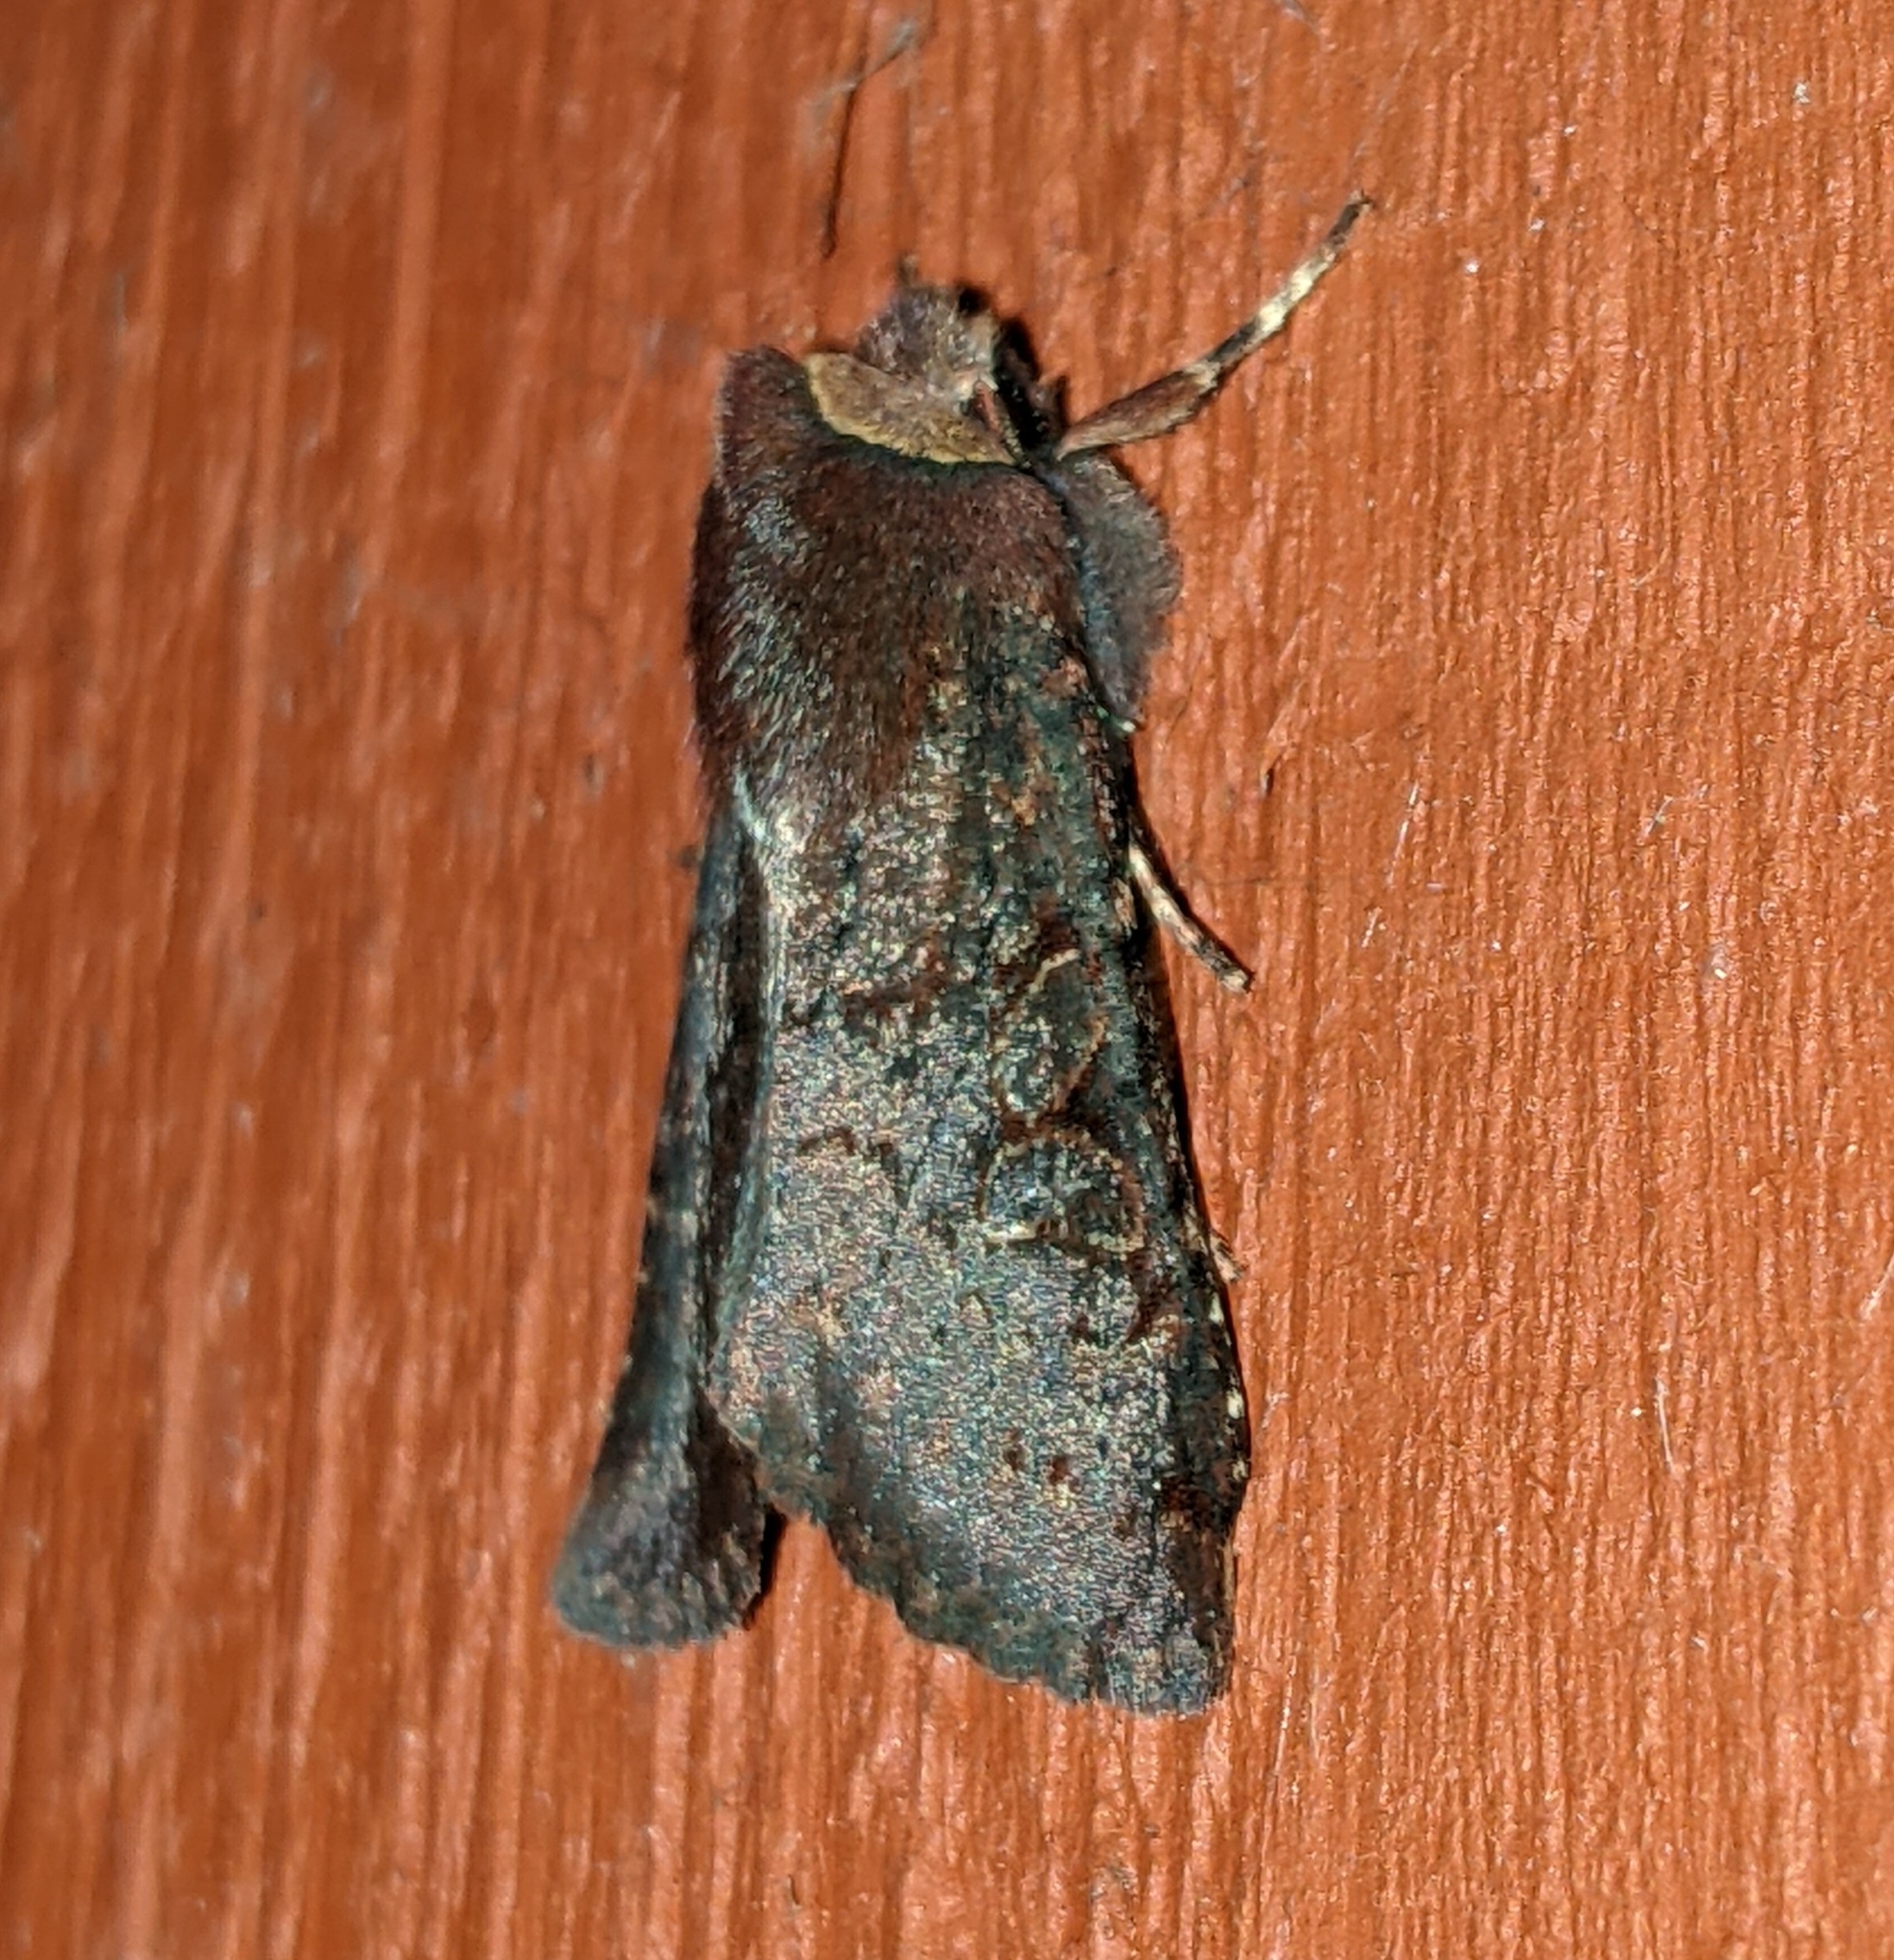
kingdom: Animalia
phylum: Arthropoda
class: Insecta
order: Lepidoptera
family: Noctuidae
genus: Orthosia
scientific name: Orthosia praeses
